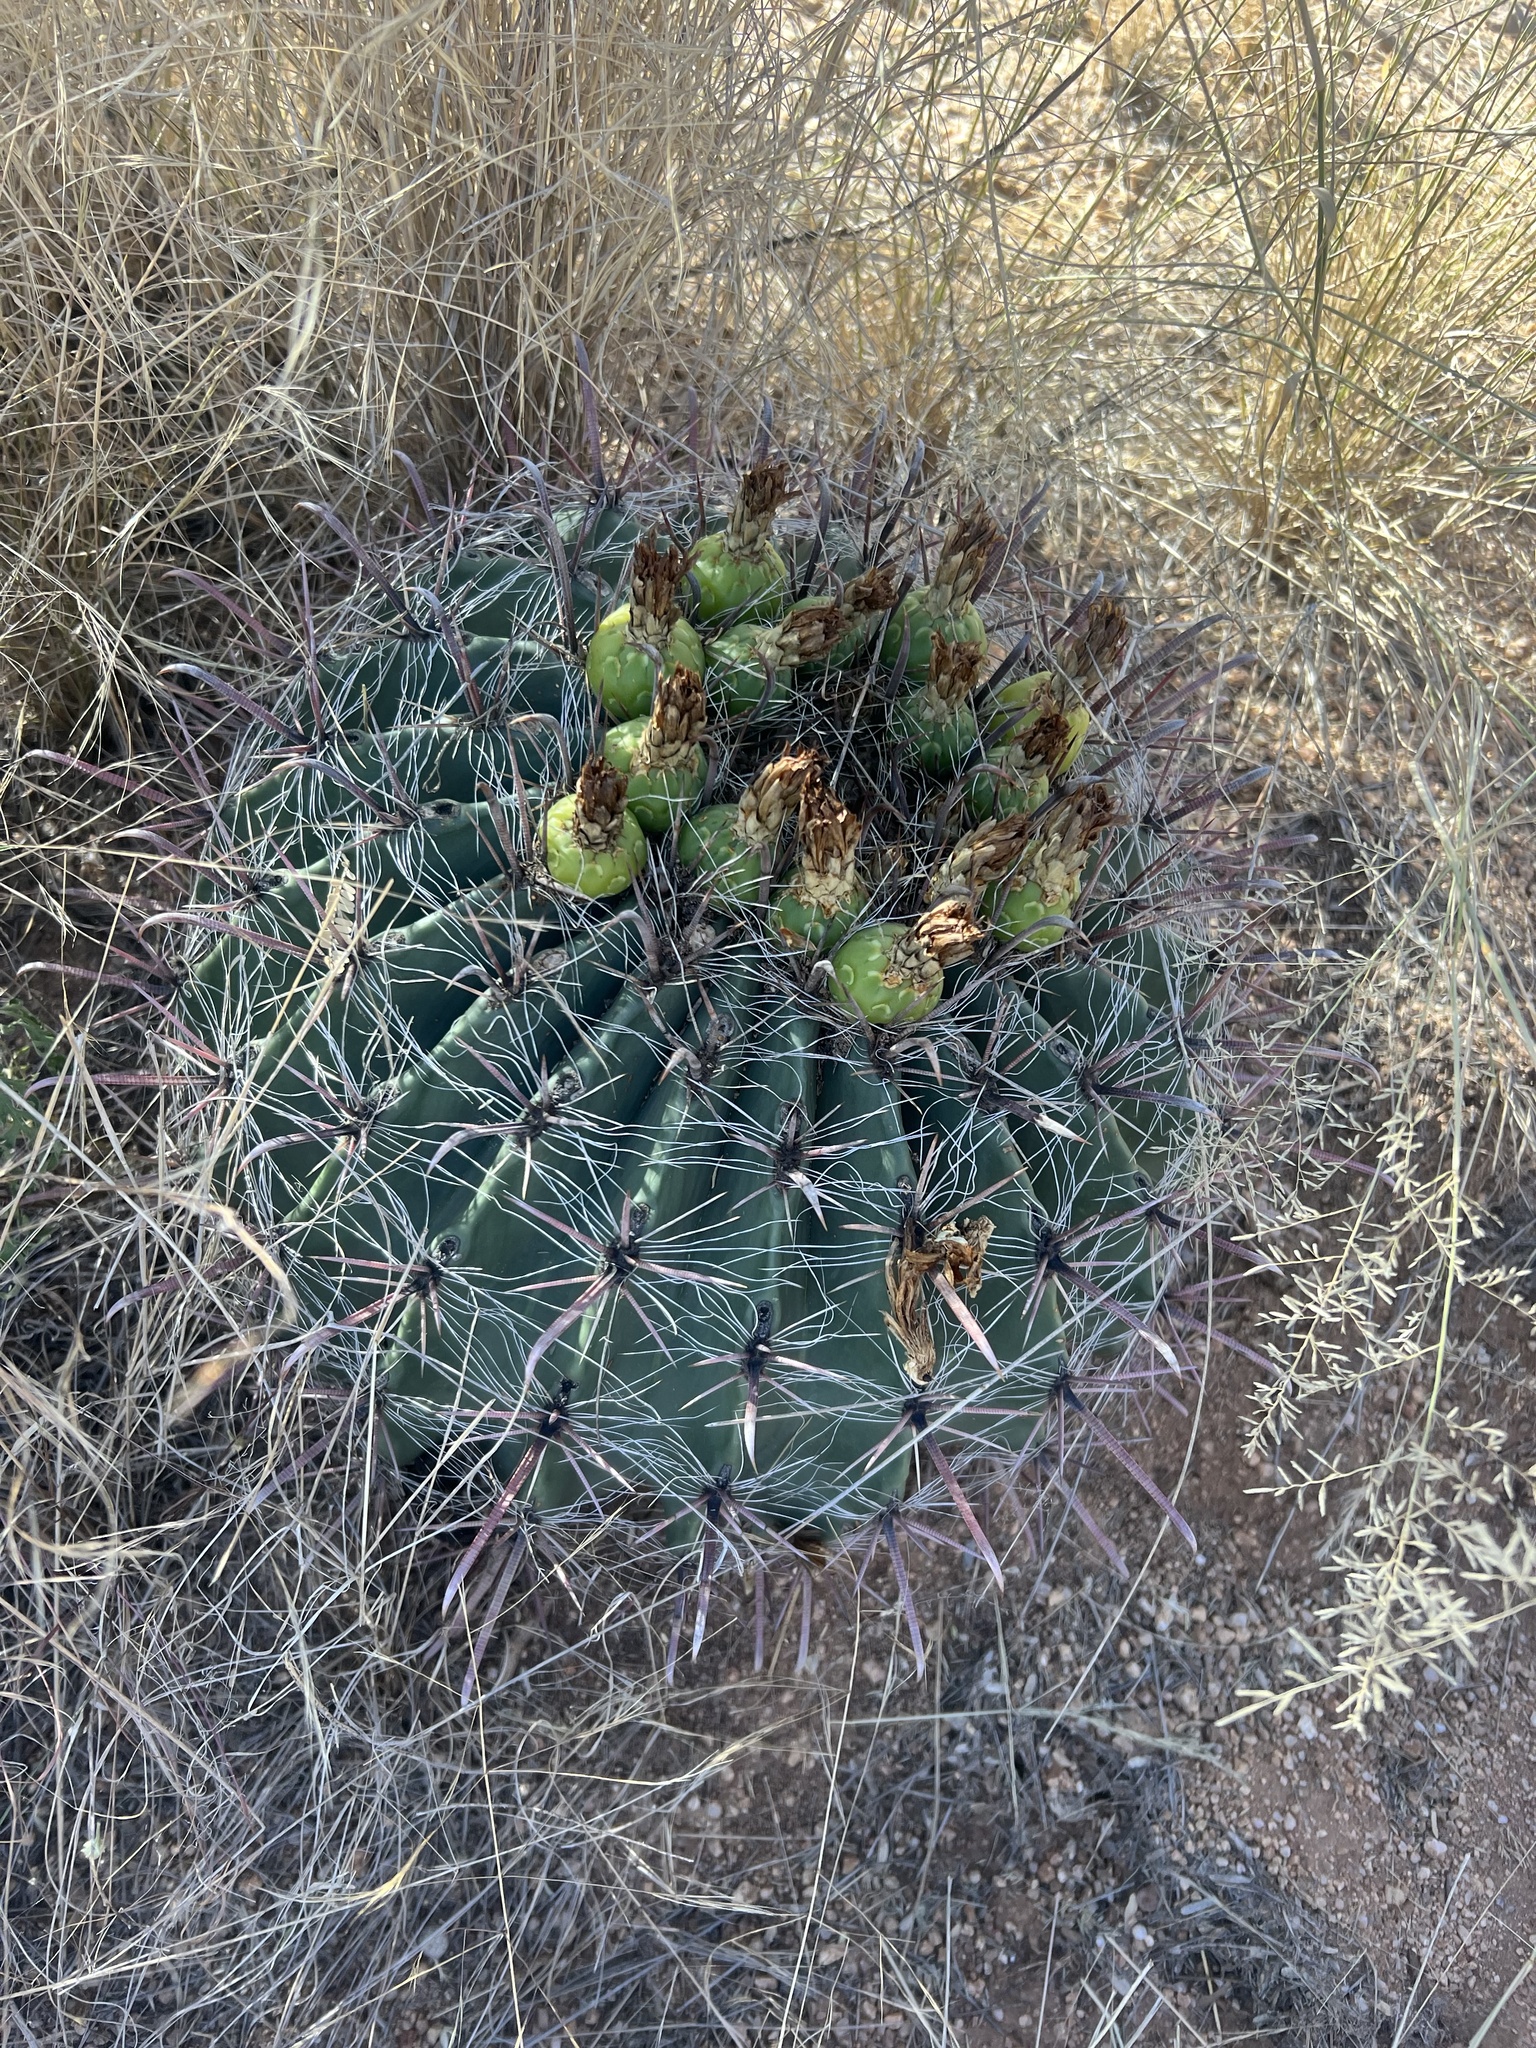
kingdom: Plantae
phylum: Tracheophyta
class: Magnoliopsida
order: Caryophyllales
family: Cactaceae
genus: Ferocactus
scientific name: Ferocactus wislizeni
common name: Candy barrel cactus
